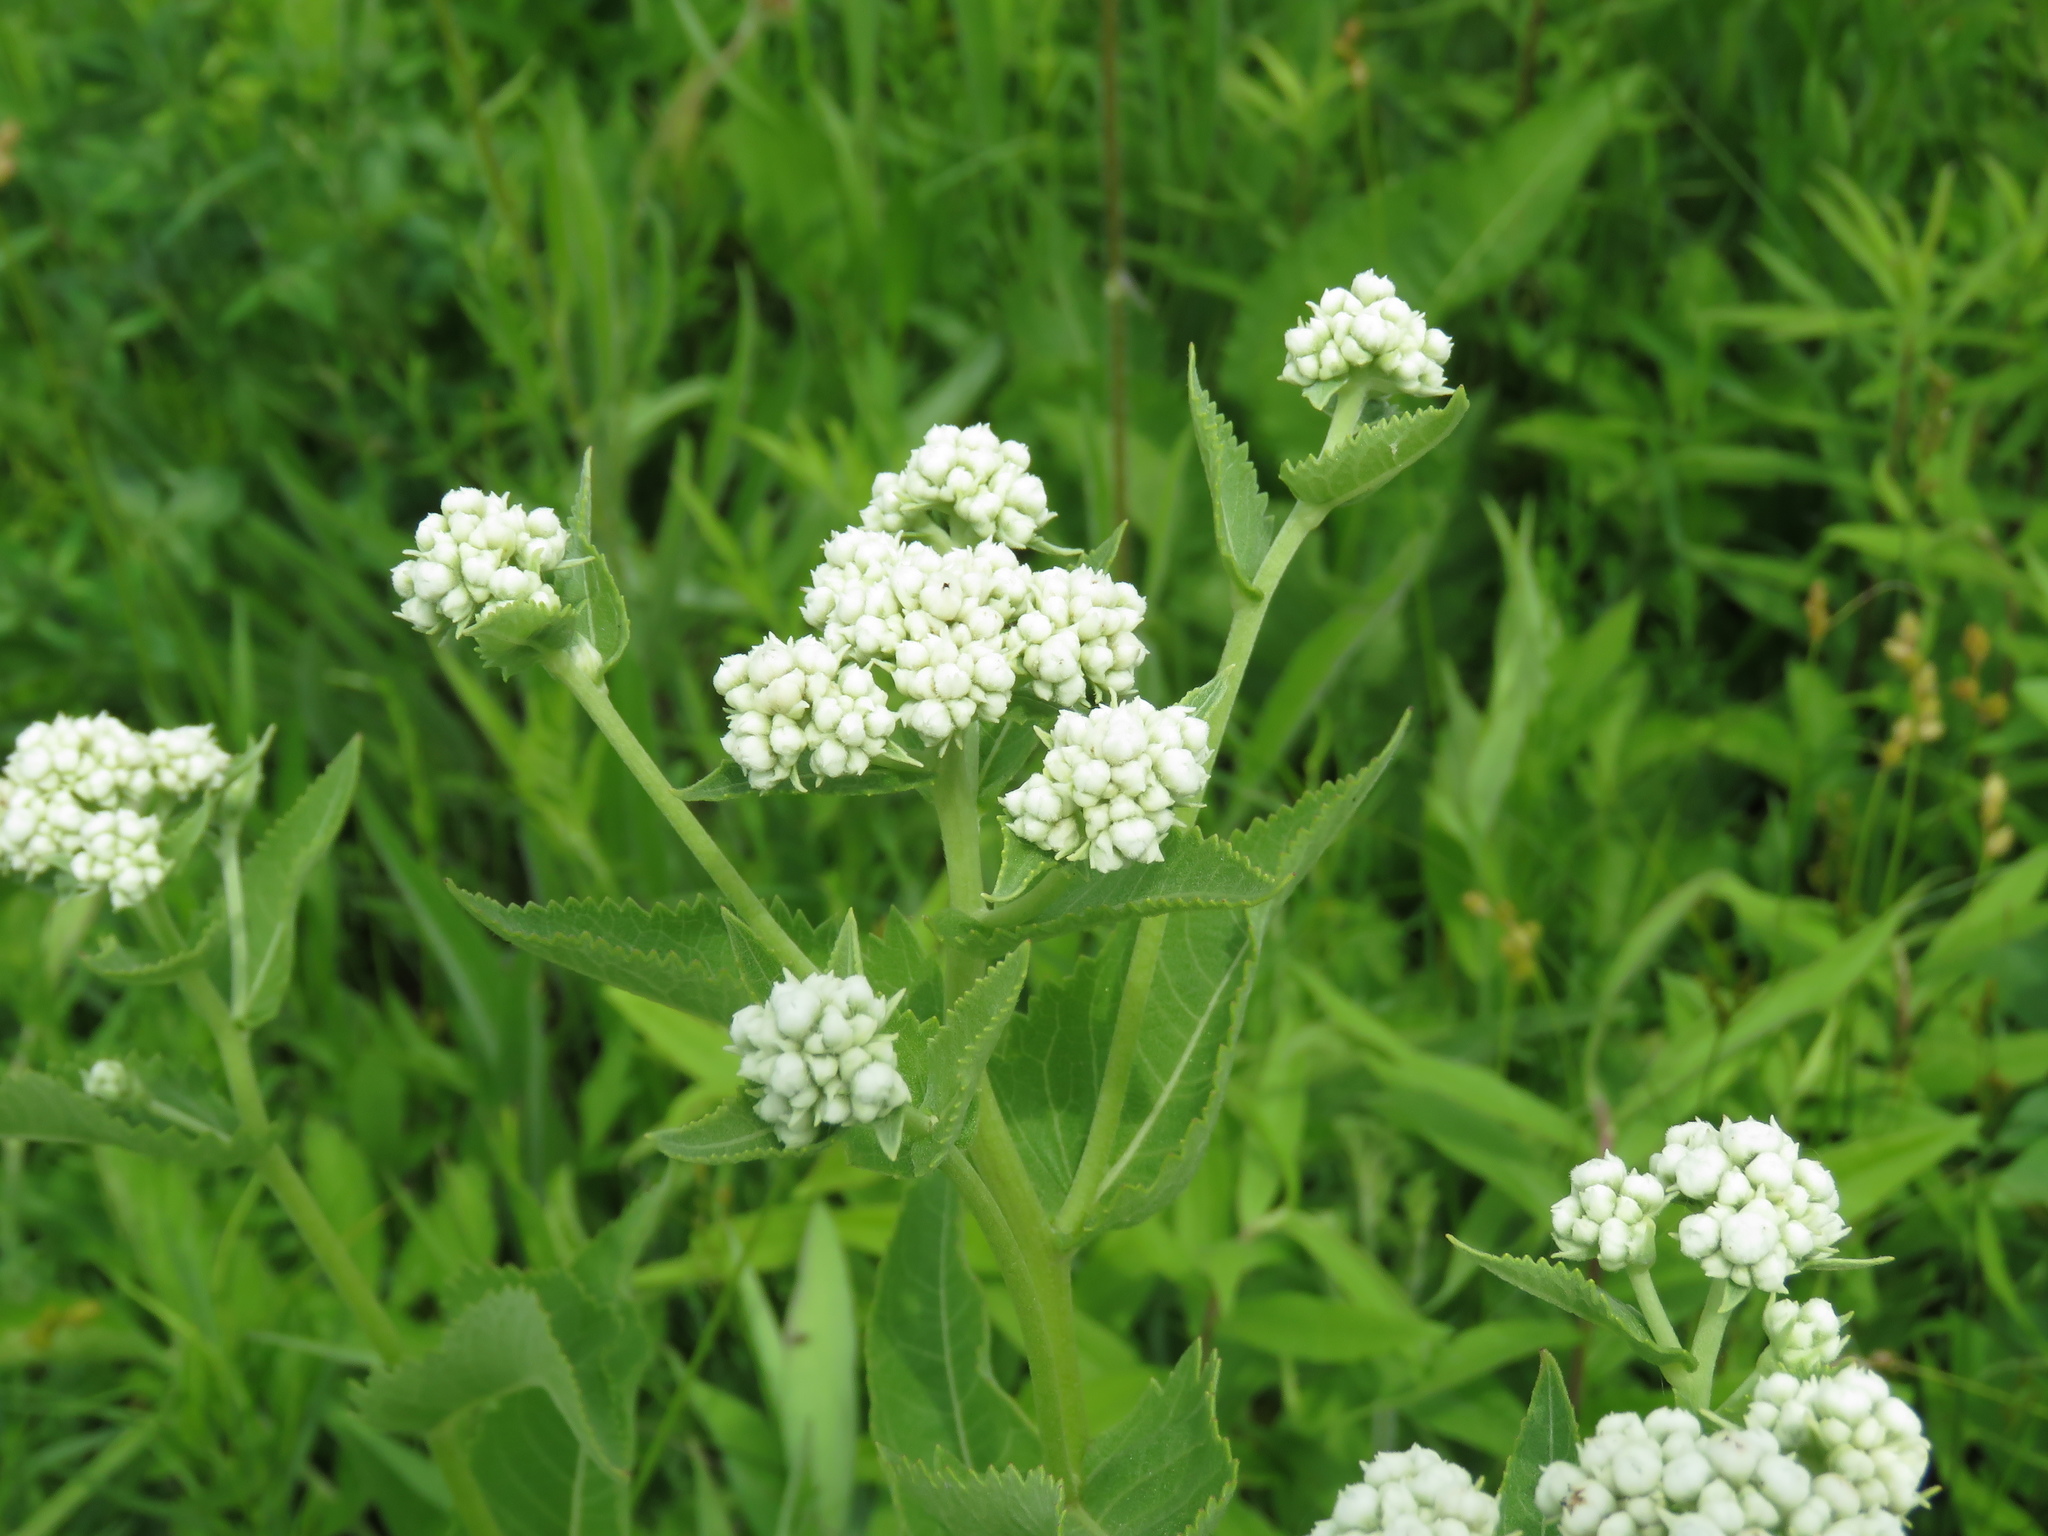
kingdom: Plantae
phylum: Tracheophyta
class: Magnoliopsida
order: Asterales
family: Asteraceae
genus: Parthenium
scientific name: Parthenium integrifolium
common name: American feverfew
